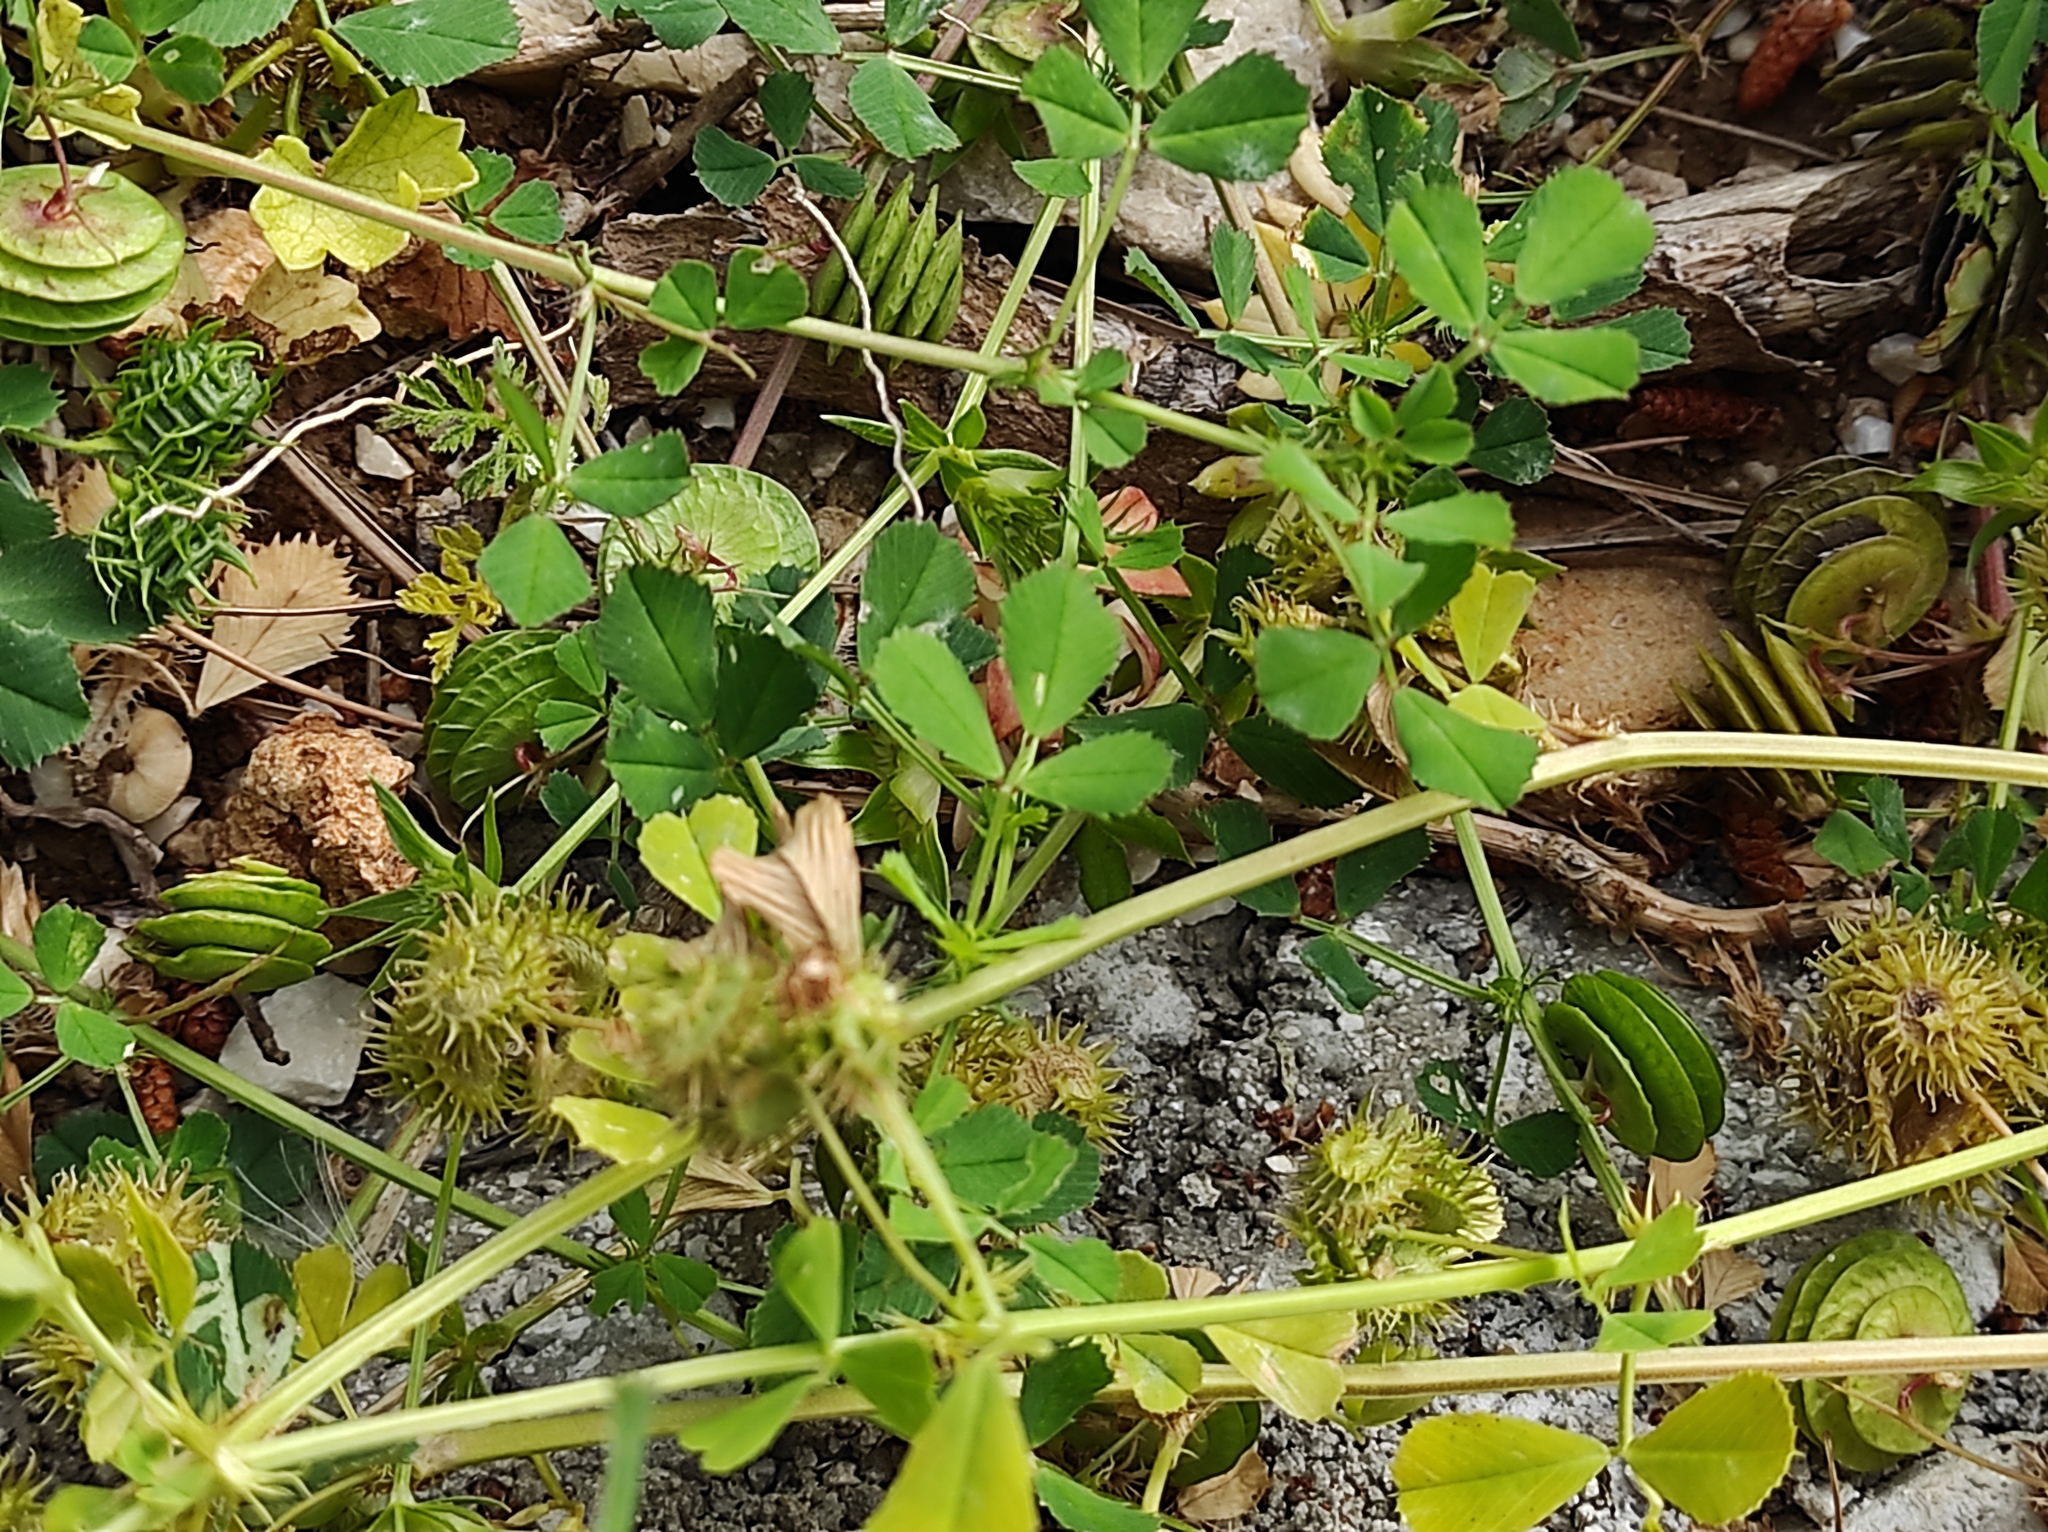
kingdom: Plantae
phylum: Tracheophyta
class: Magnoliopsida
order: Fabales
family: Fabaceae
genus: Medicago
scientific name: Medicago orbicularis
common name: Button medick
